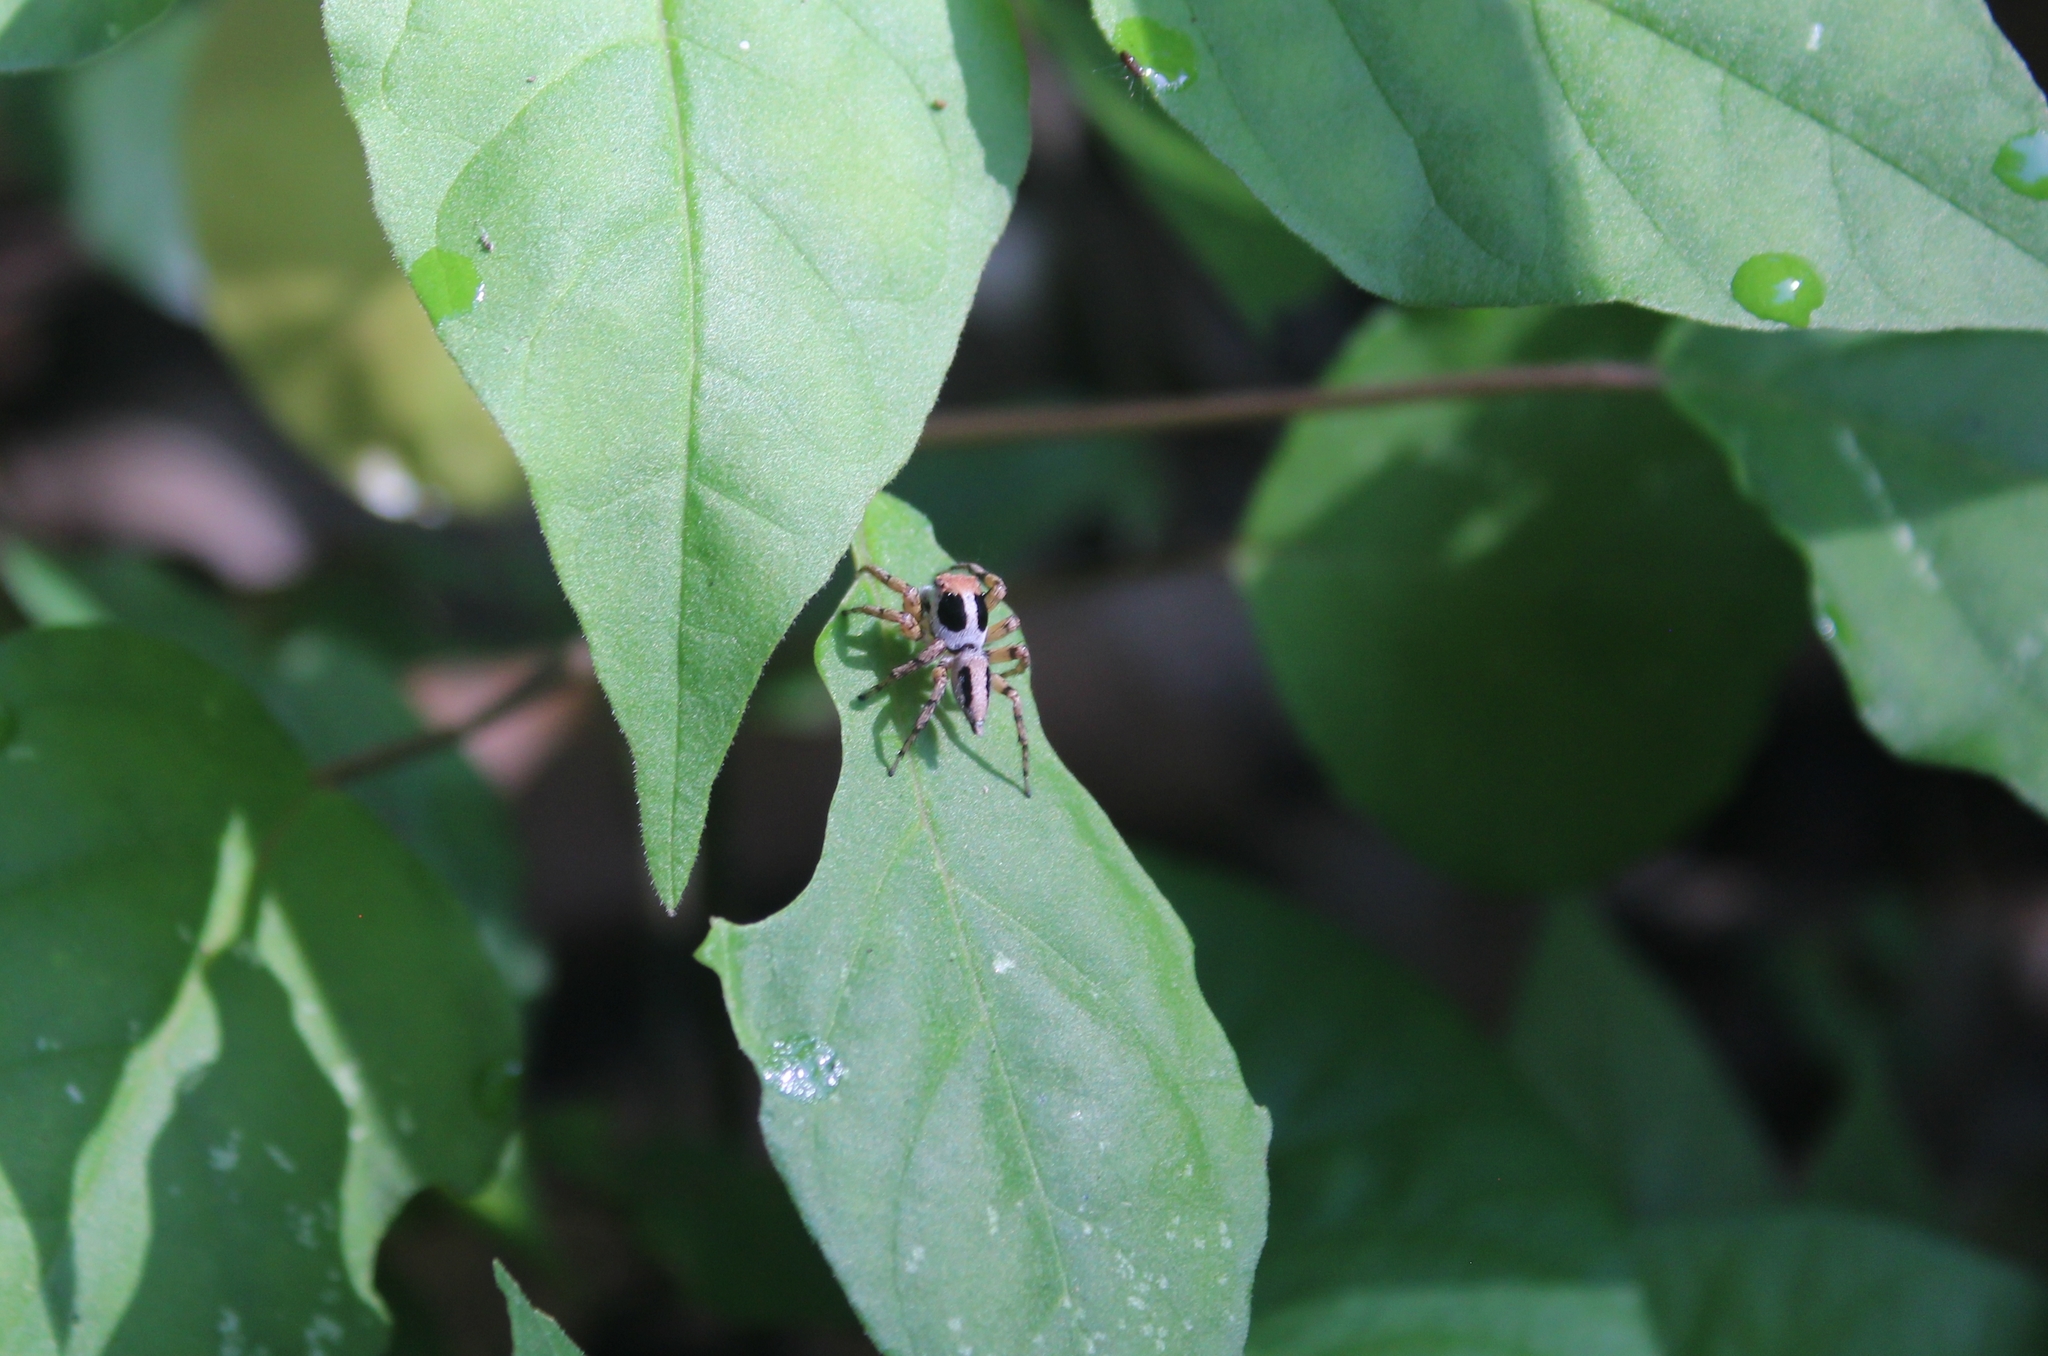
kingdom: Animalia
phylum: Arthropoda
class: Arachnida
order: Araneae
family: Salticidae
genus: Tarkas
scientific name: Tarkas maculatipes
